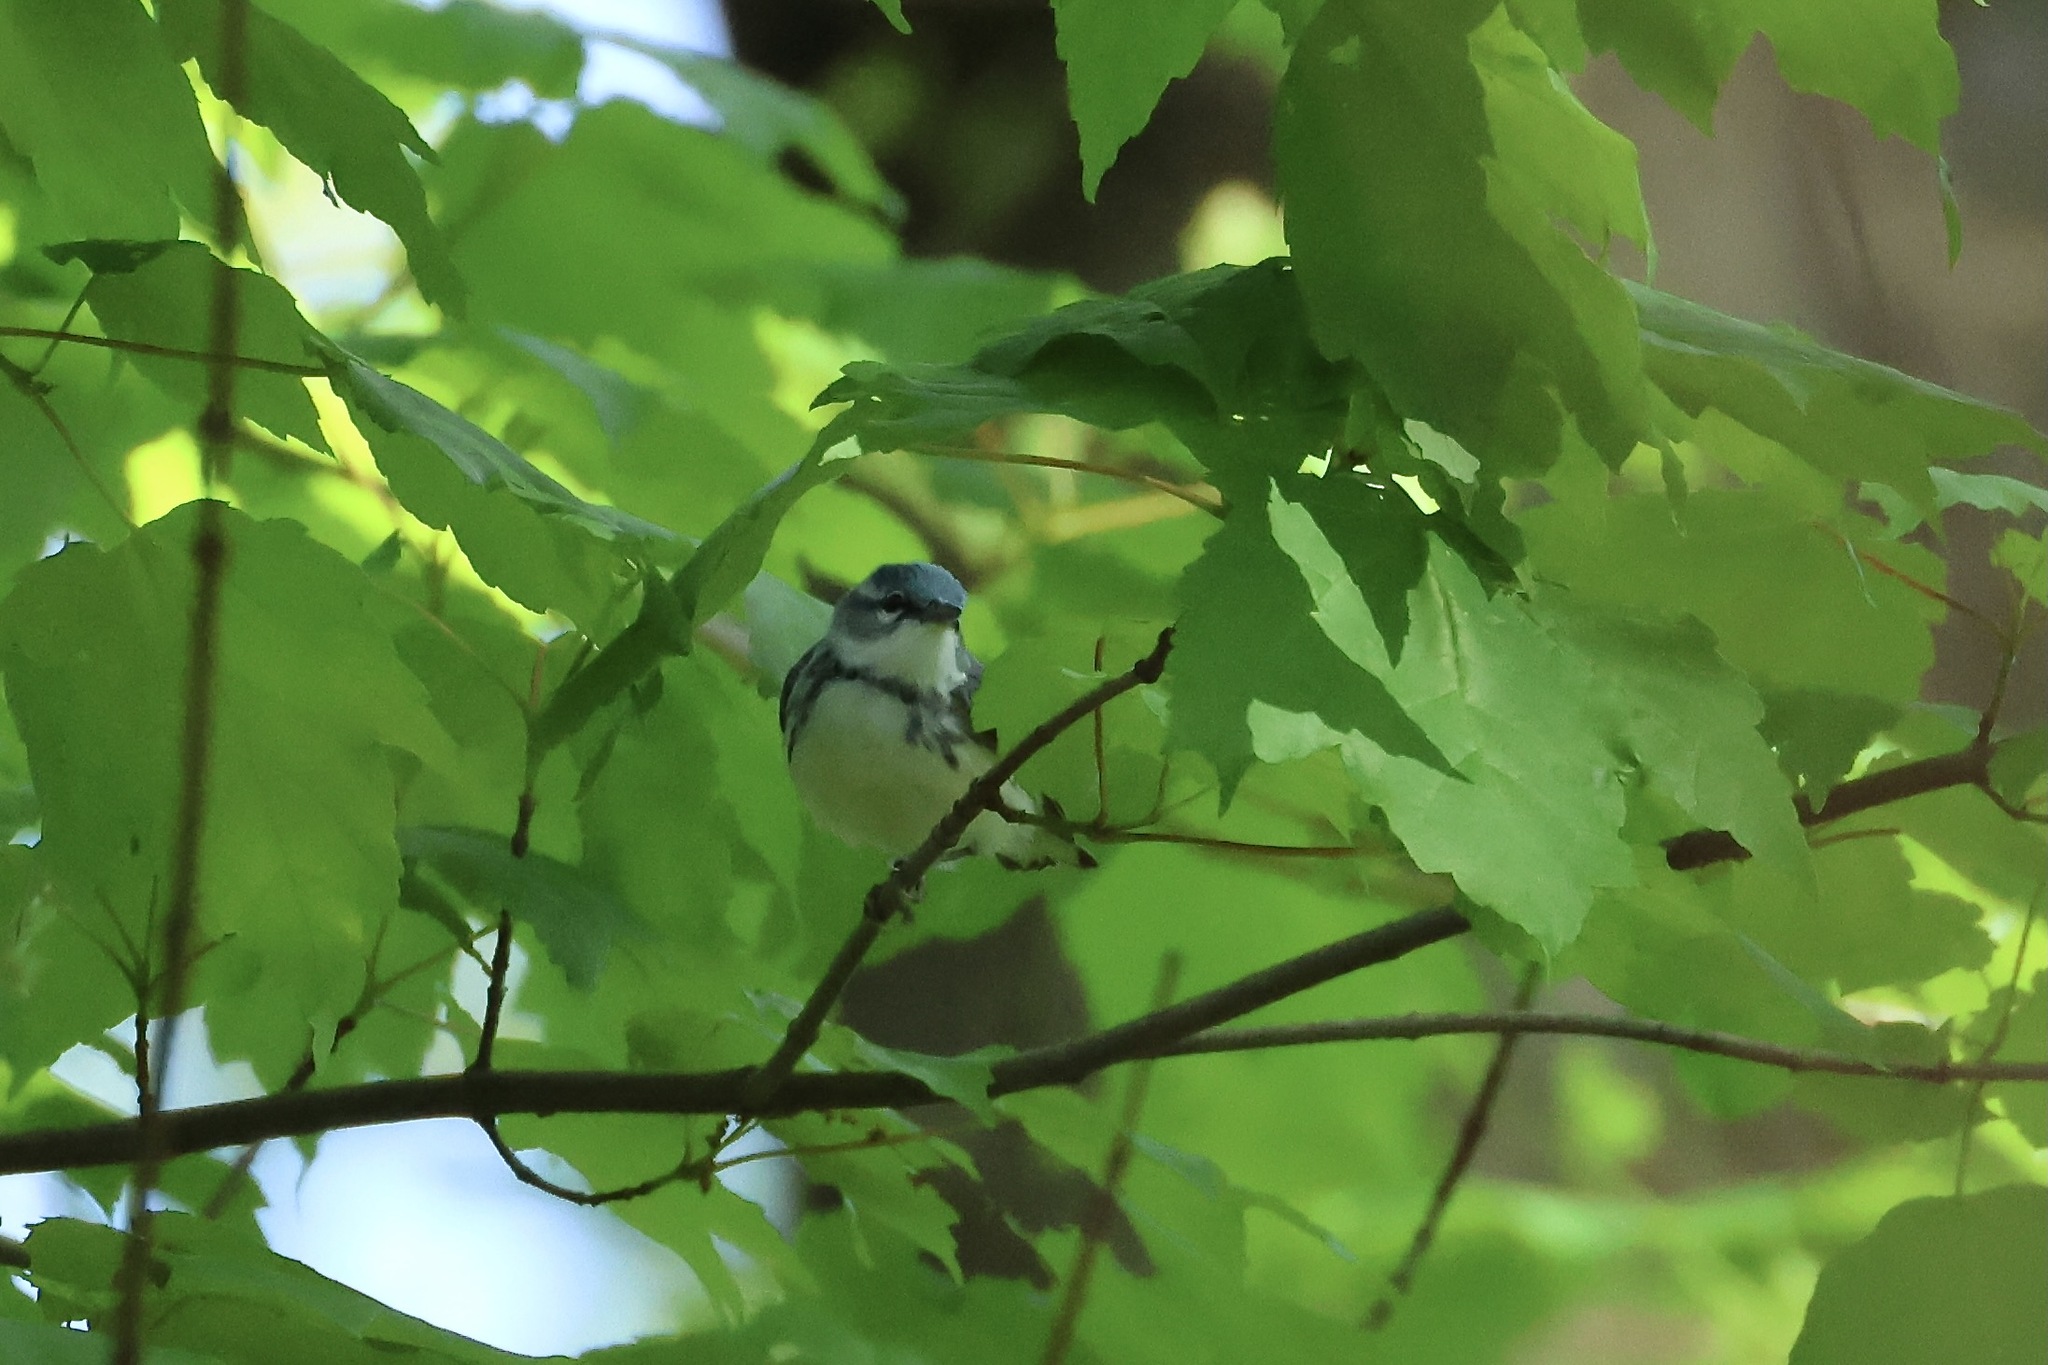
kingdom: Animalia
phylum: Chordata
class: Aves
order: Passeriformes
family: Parulidae
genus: Setophaga
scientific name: Setophaga cerulea
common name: Cerulean warbler
